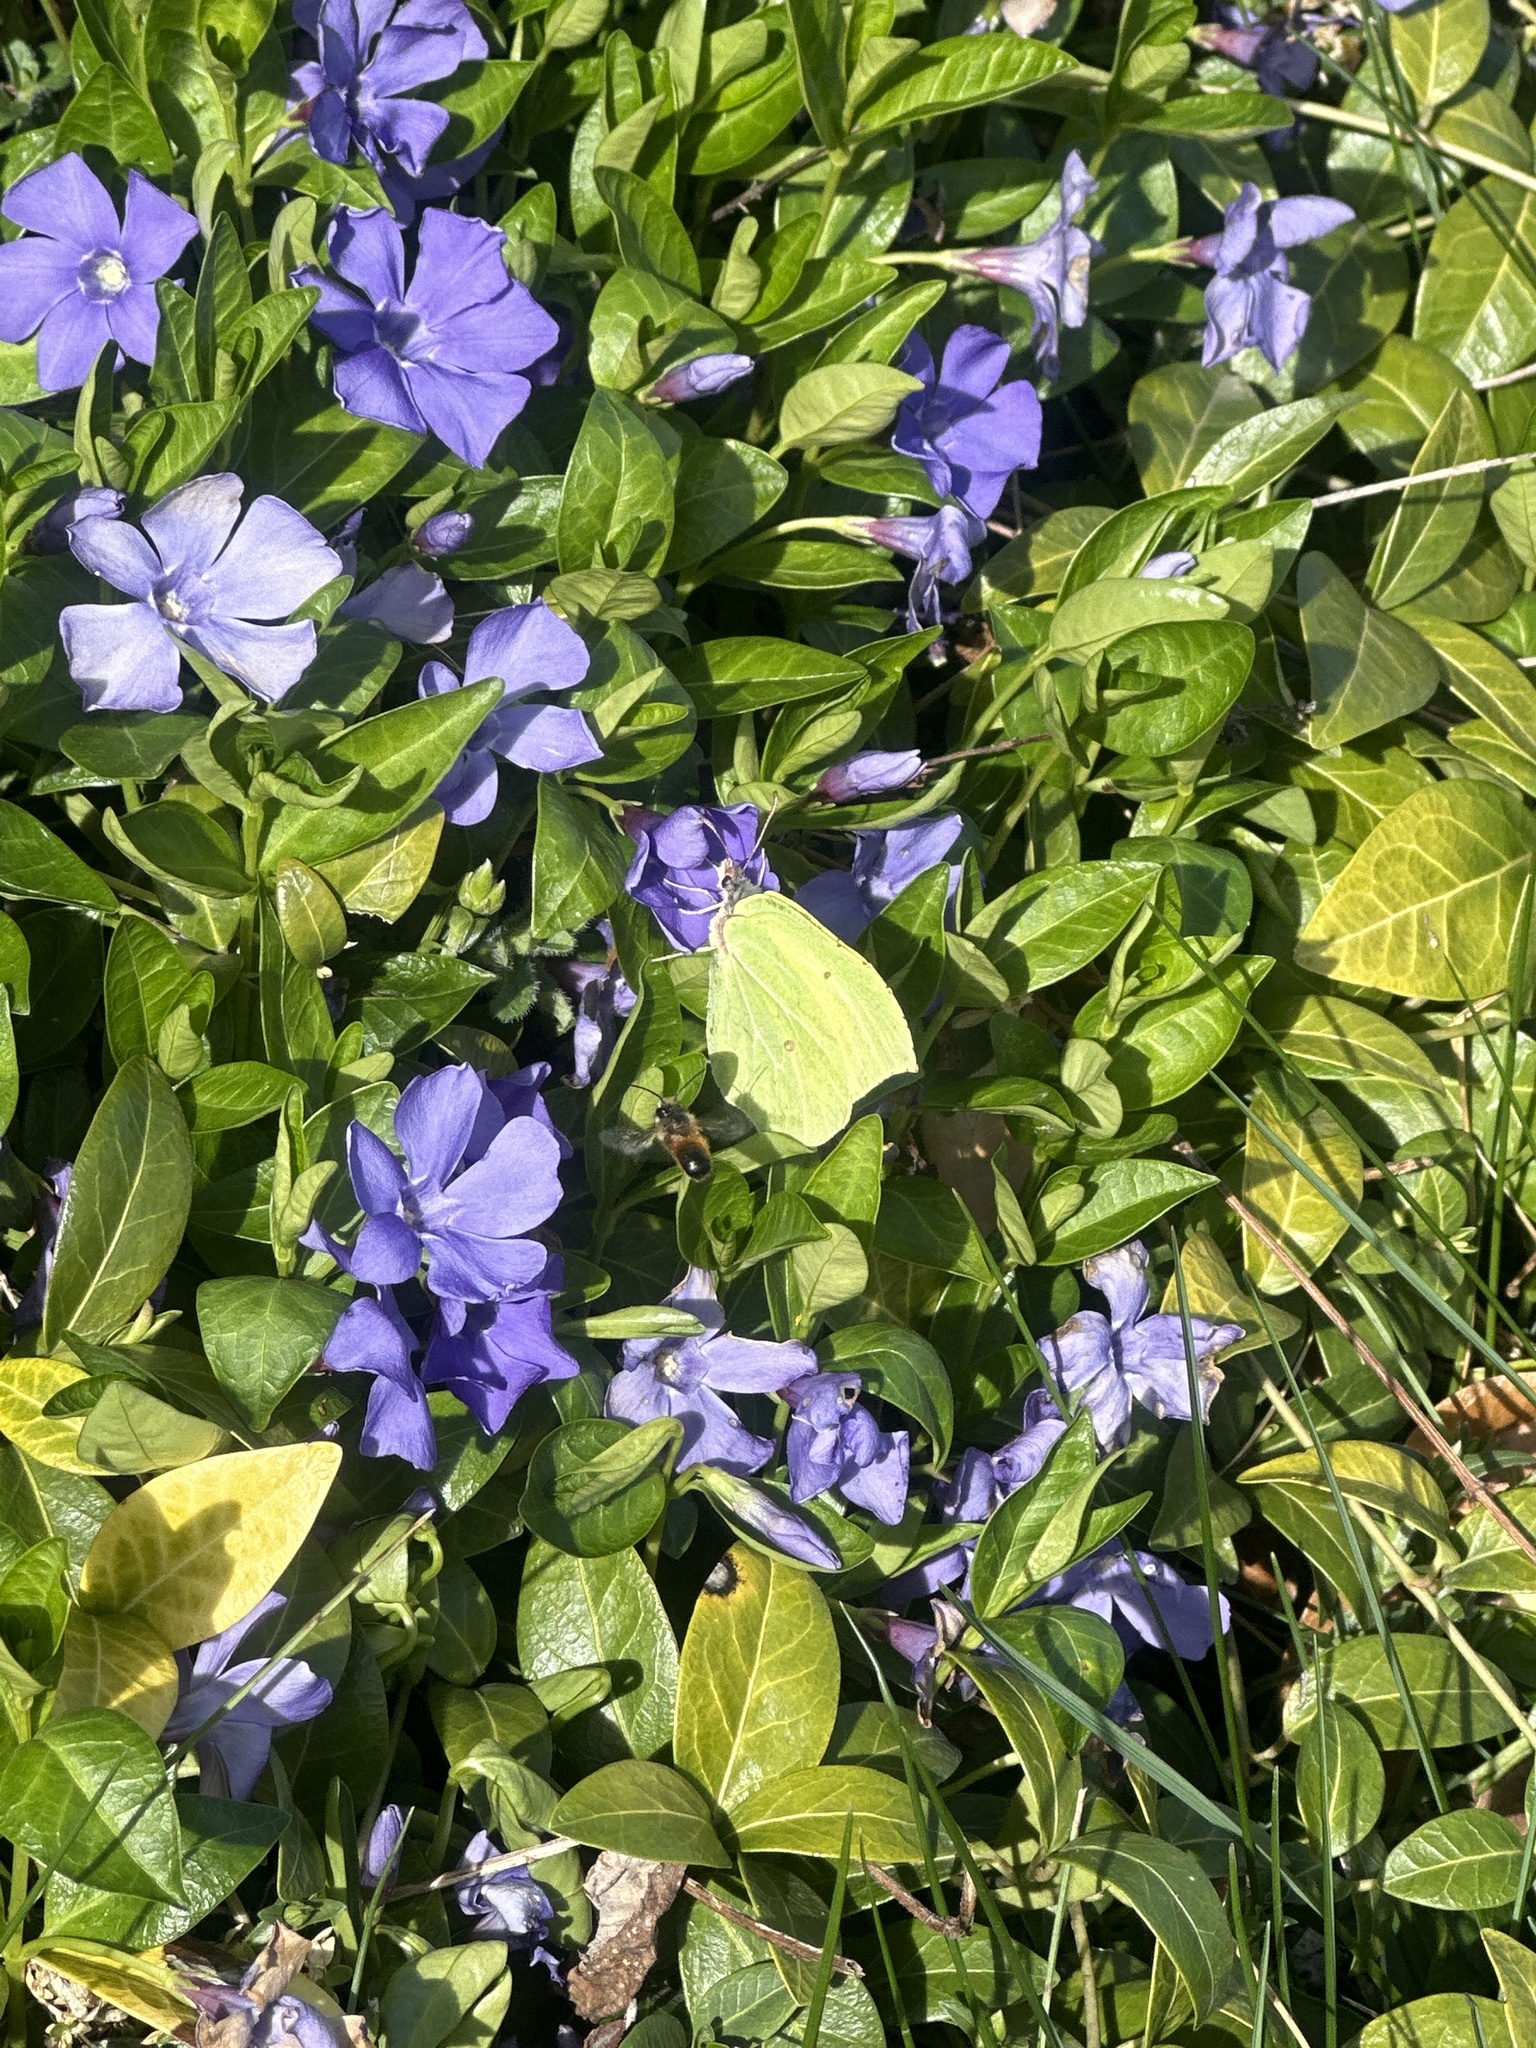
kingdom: Animalia
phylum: Arthropoda
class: Insecta
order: Lepidoptera
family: Pieridae
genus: Gonepteryx
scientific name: Gonepteryx rhamni
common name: Brimstone
